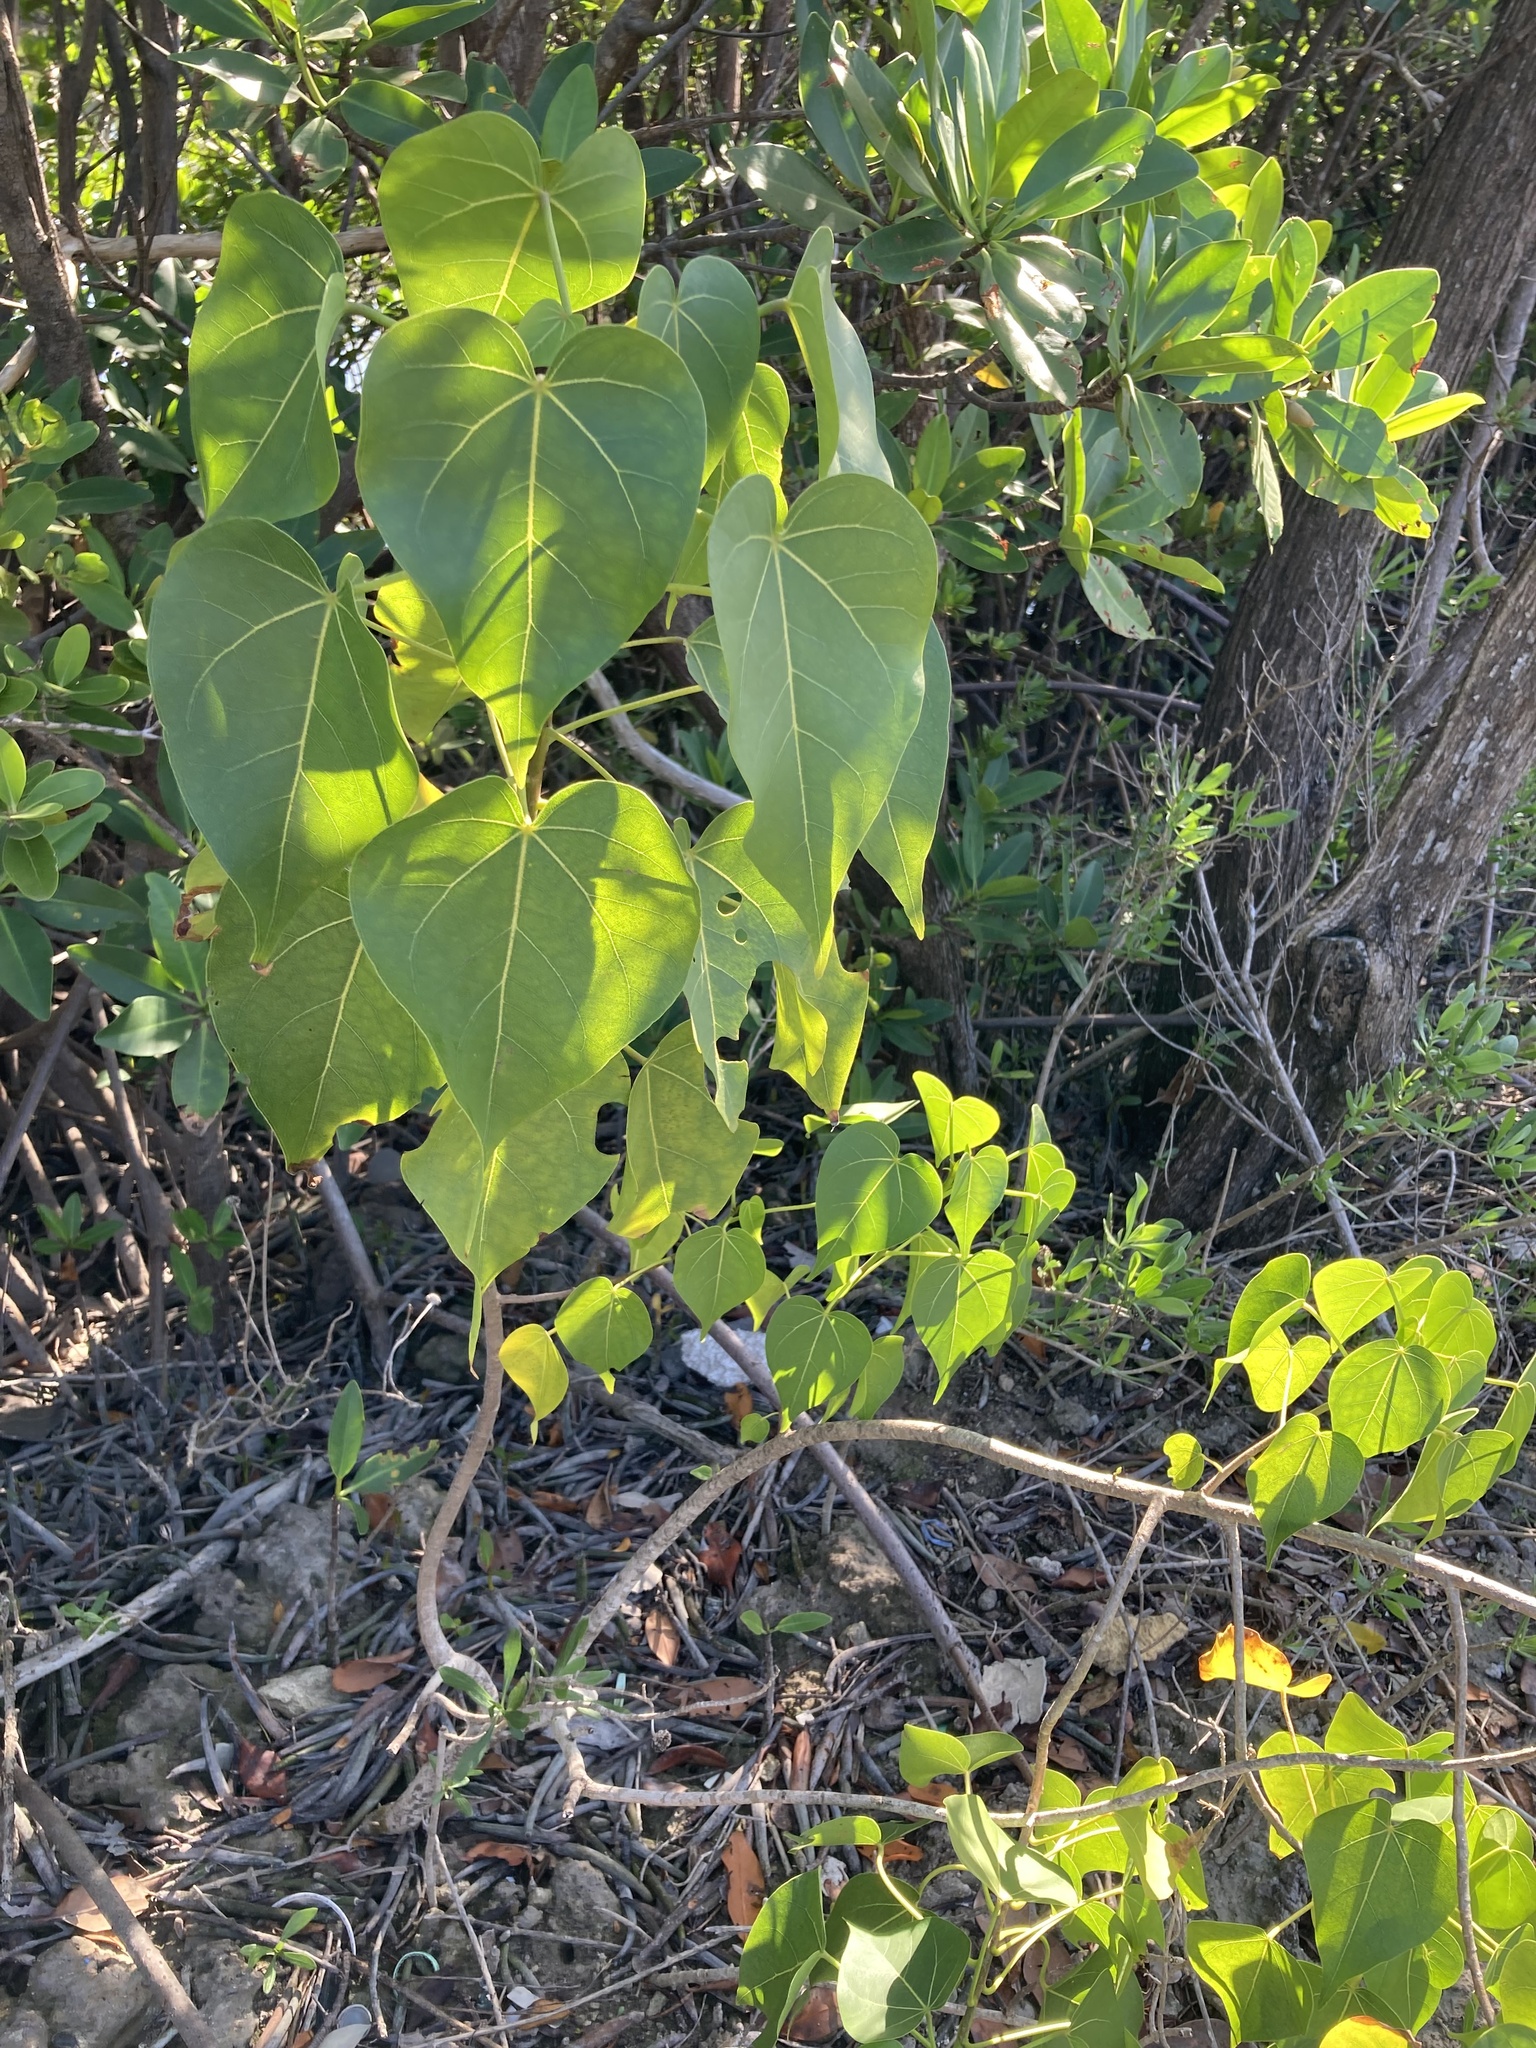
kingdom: Plantae
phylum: Tracheophyta
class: Magnoliopsida
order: Malvales
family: Malvaceae
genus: Thespesia
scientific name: Thespesia populnea
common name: Seaside mahoe
